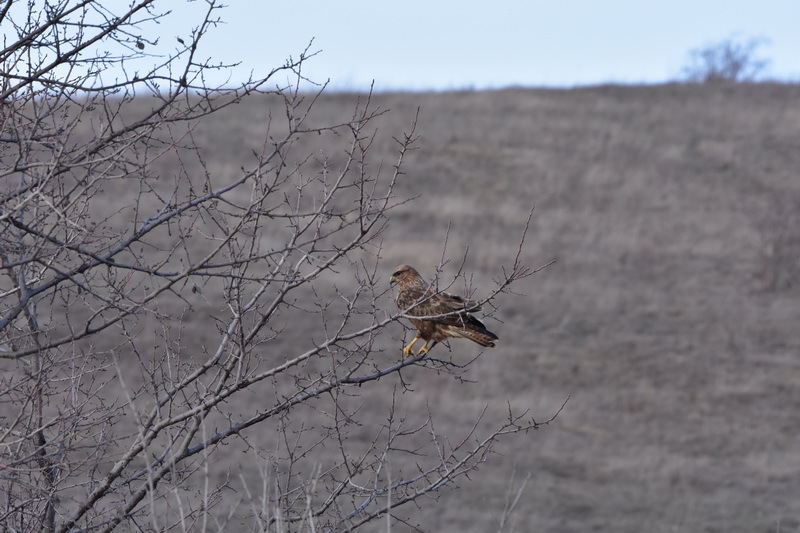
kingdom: Animalia
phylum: Chordata
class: Aves
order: Accipitriformes
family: Accipitridae
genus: Buteo
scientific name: Buteo buteo
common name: Common buzzard
